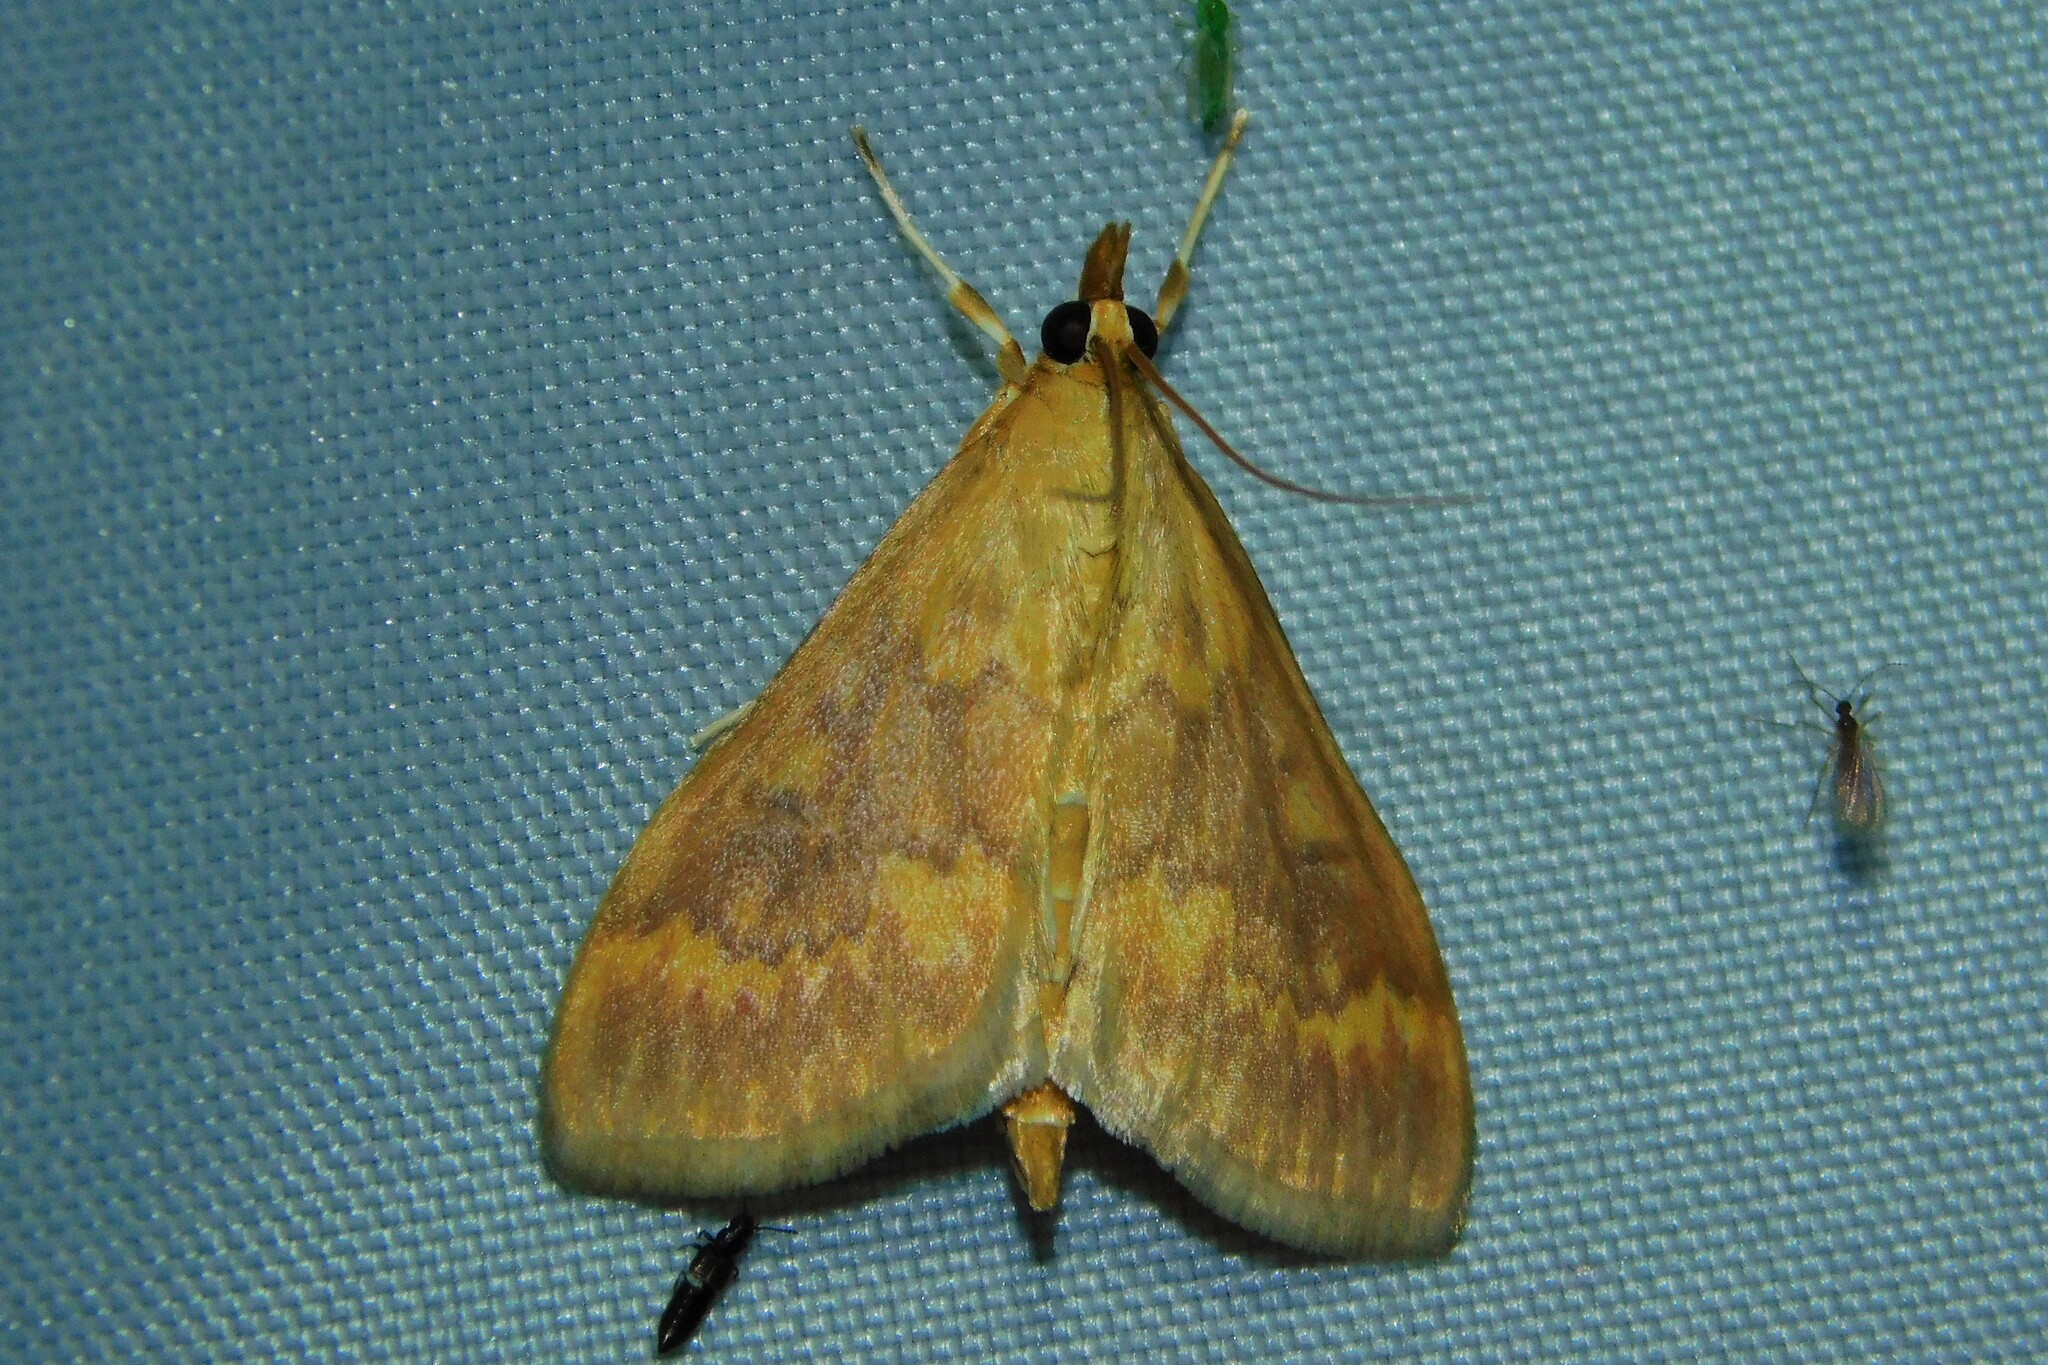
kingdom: Animalia
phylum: Arthropoda
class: Insecta
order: Lepidoptera
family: Crambidae
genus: Ostrinia
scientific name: Ostrinia nubilalis
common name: European corn borer
